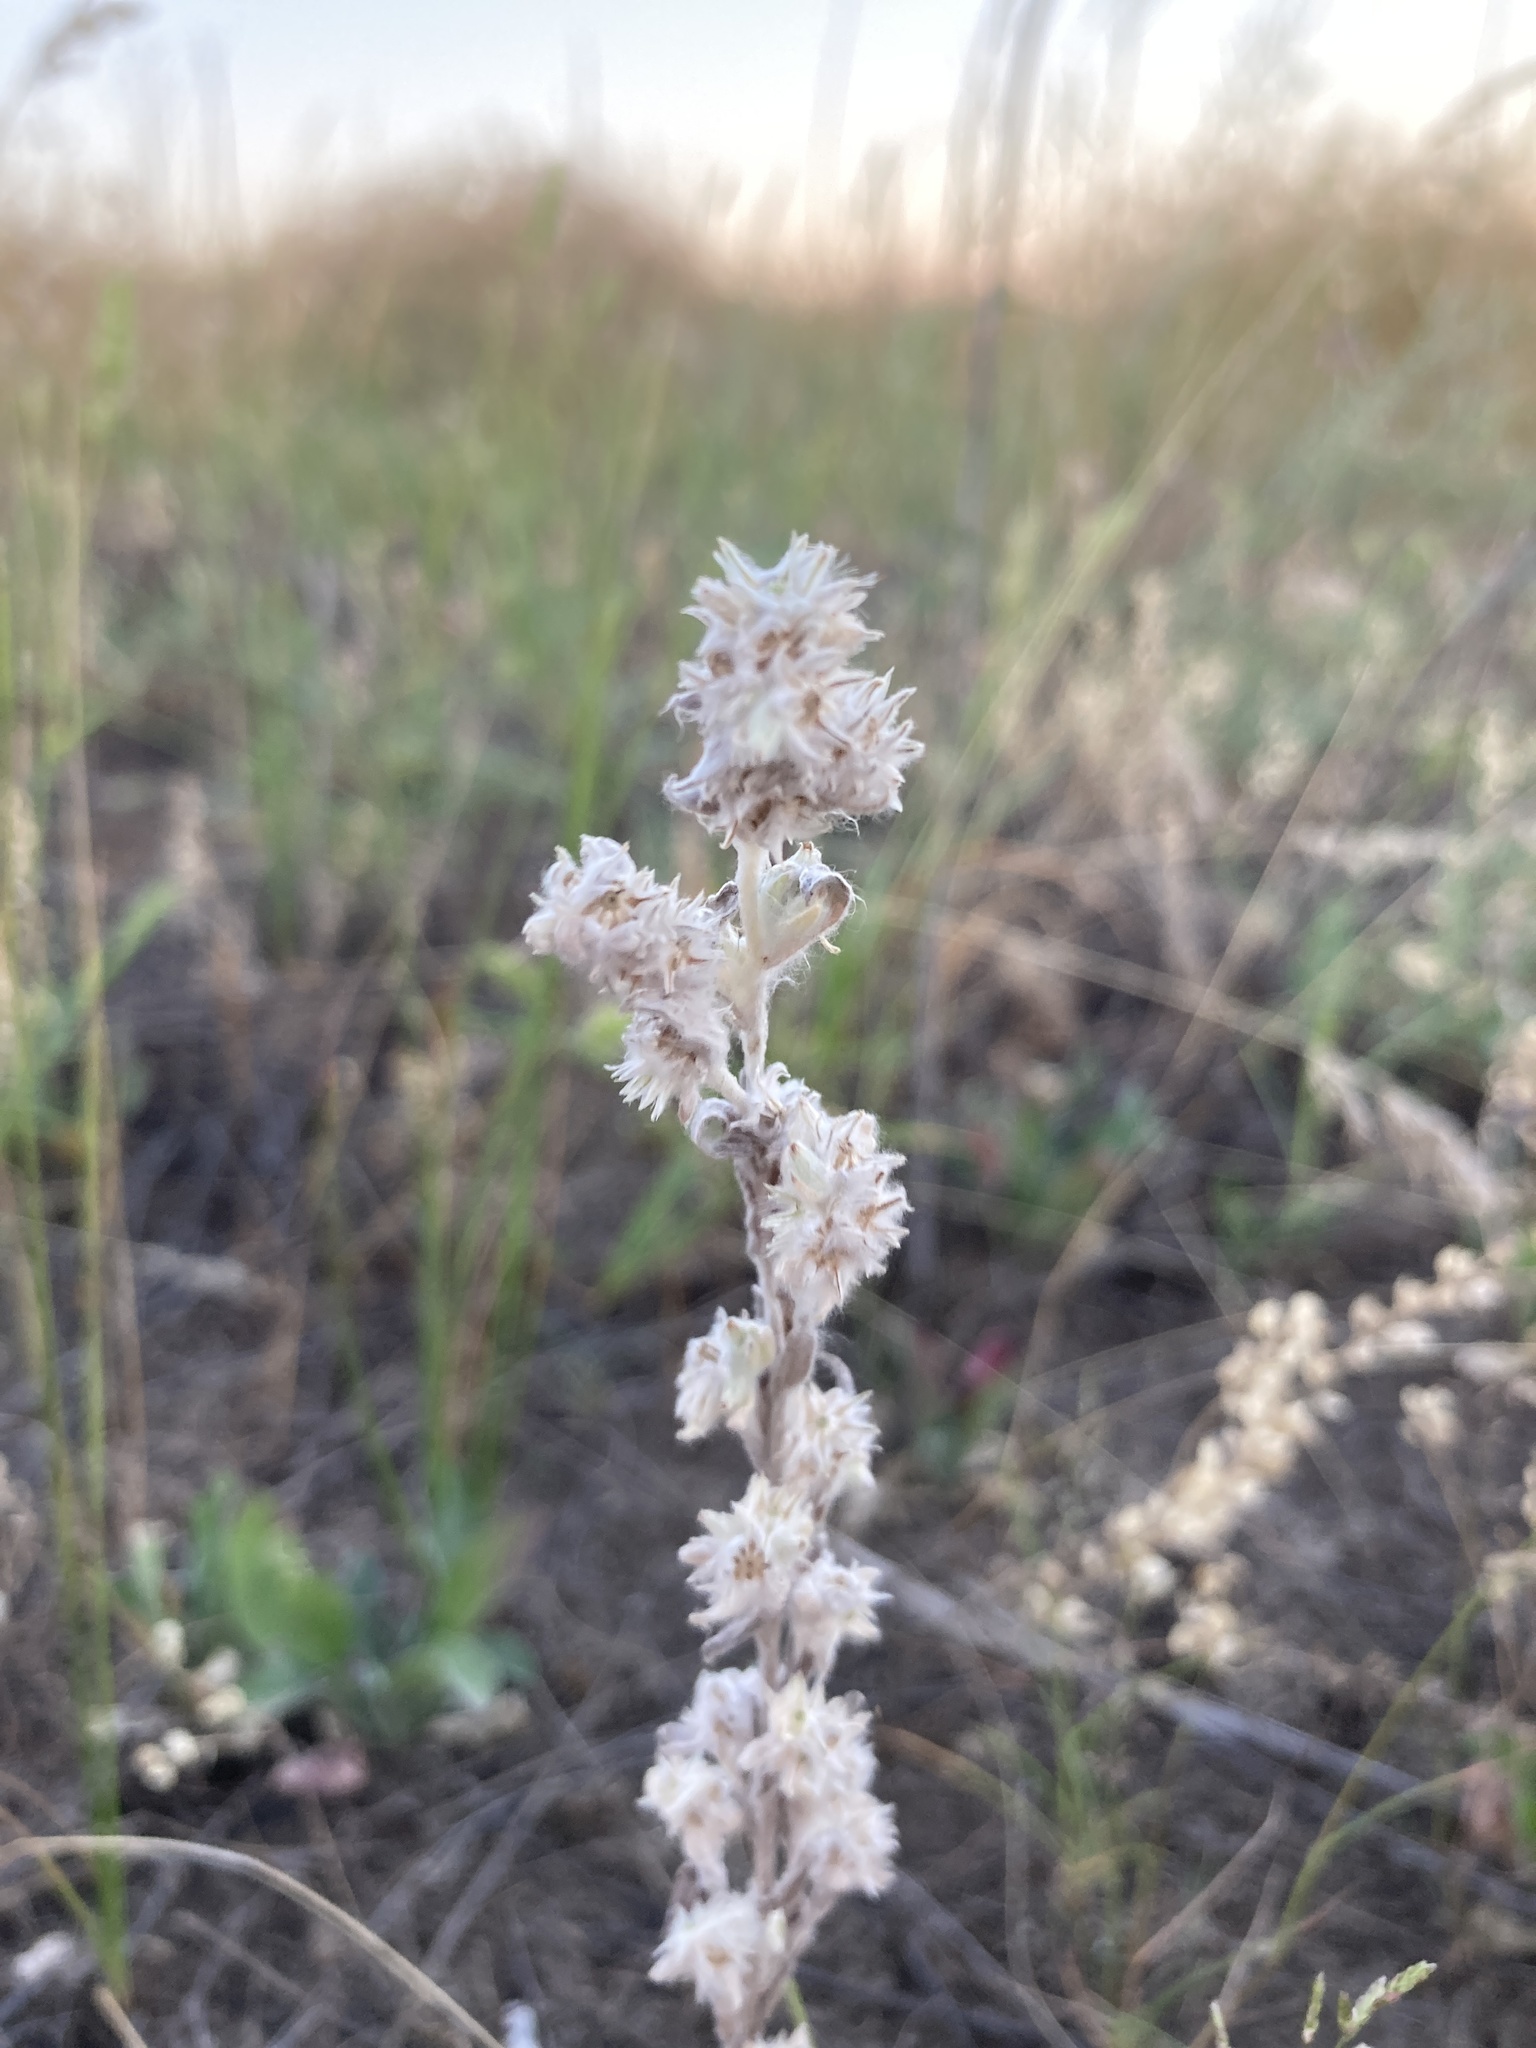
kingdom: Plantae
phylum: Tracheophyta
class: Magnoliopsida
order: Asterales
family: Asteraceae
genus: Filago
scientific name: Filago arvensis
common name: Field cudweed
